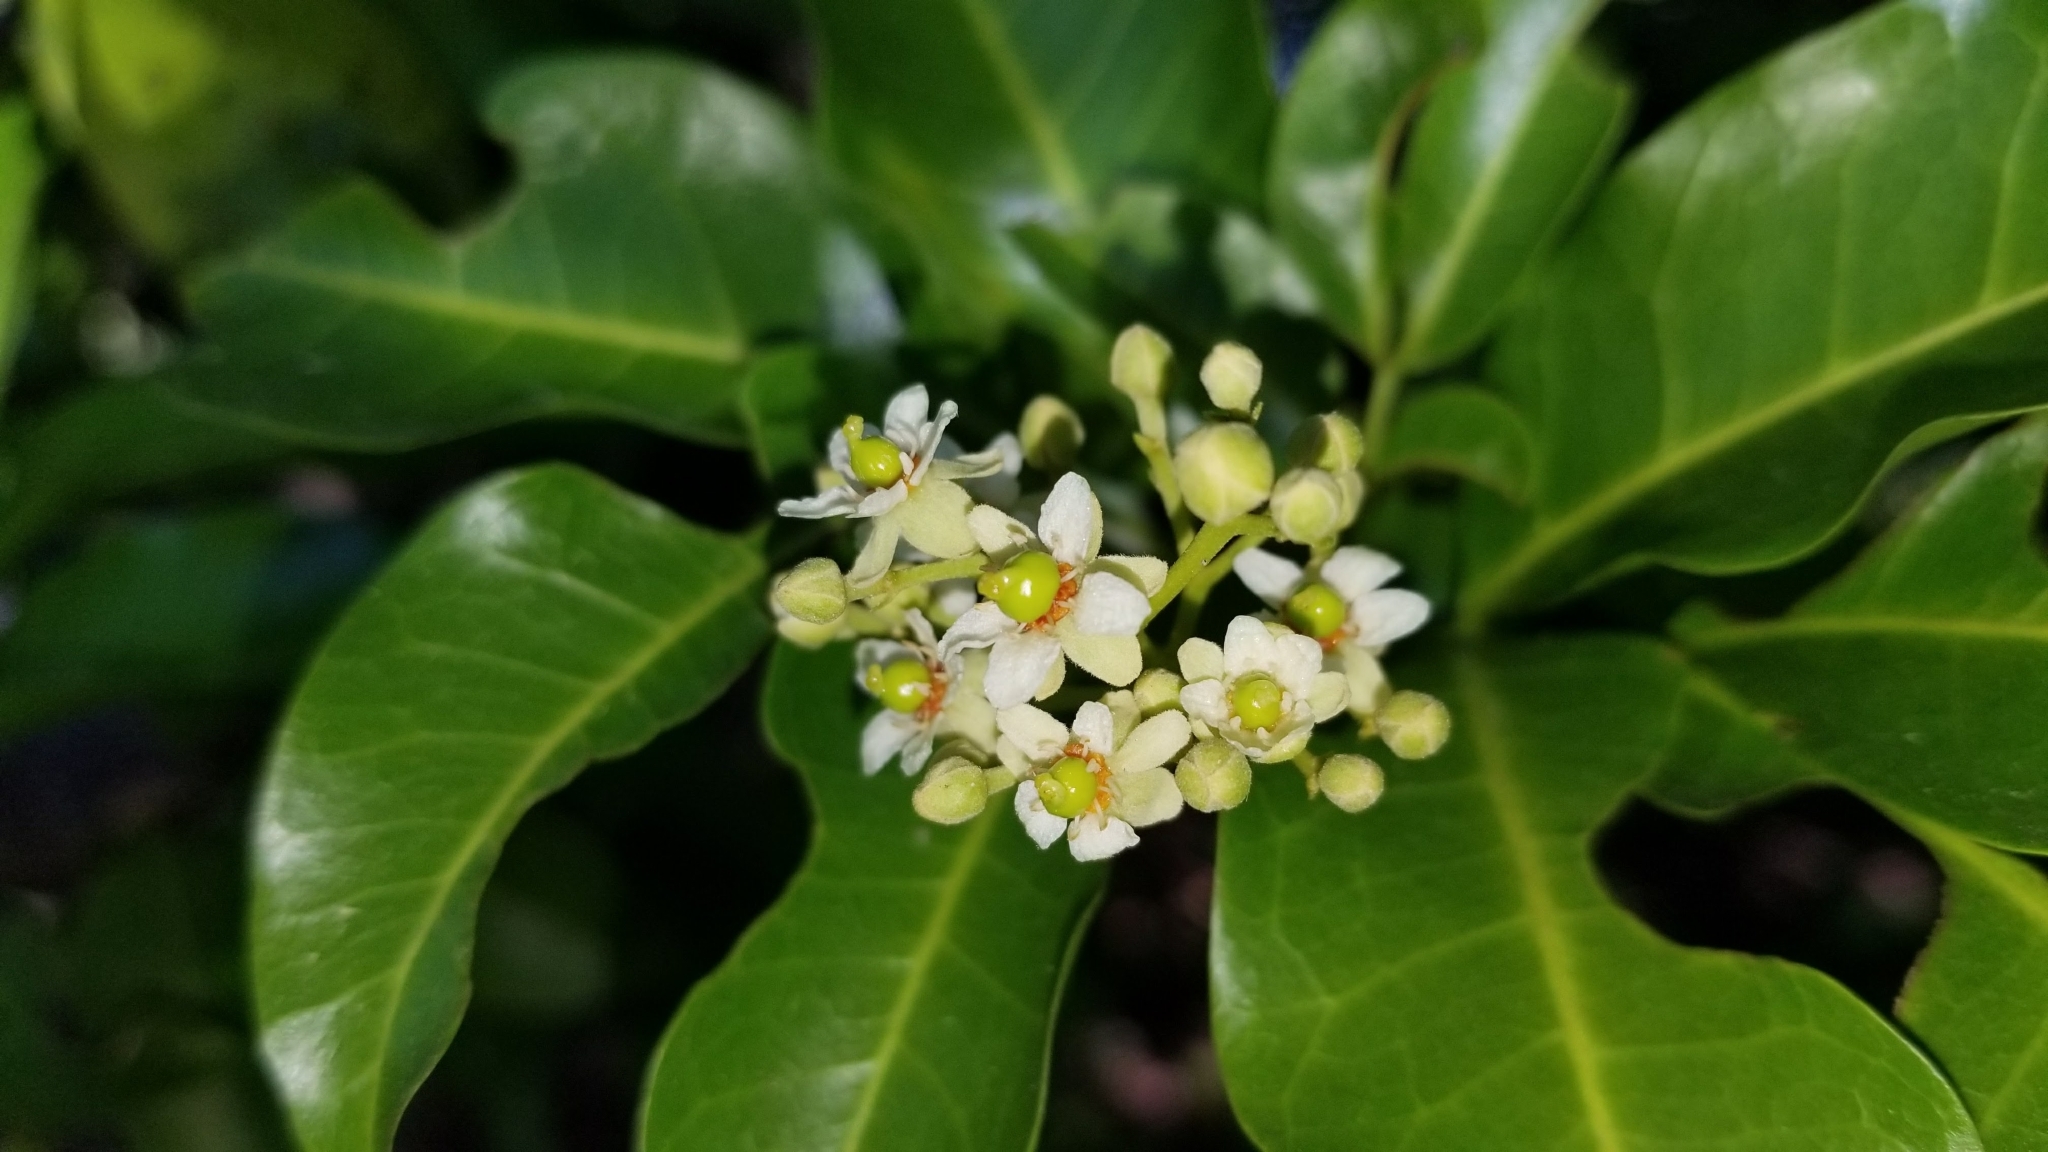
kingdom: Plantae
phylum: Tracheophyta
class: Magnoliopsida
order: Sapindales
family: Sapindaceae
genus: Exothea
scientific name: Exothea paniculata
